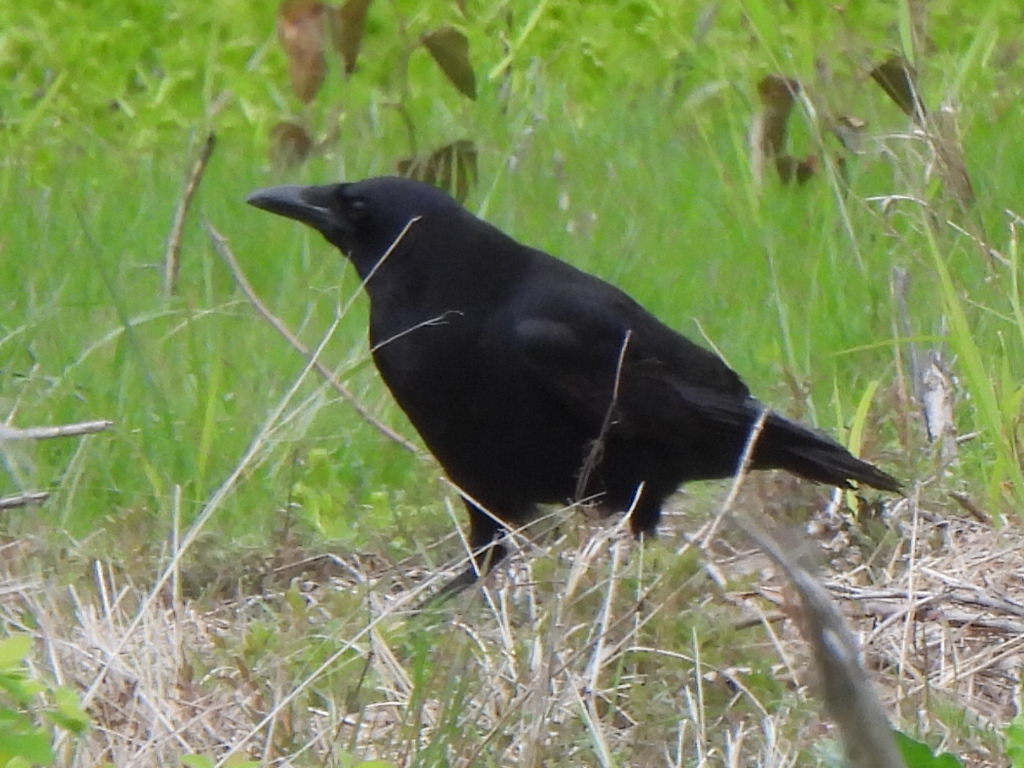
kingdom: Animalia
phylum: Chordata
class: Aves
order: Passeriformes
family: Corvidae
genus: Corvus
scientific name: Corvus brachyrhynchos
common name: American crow
